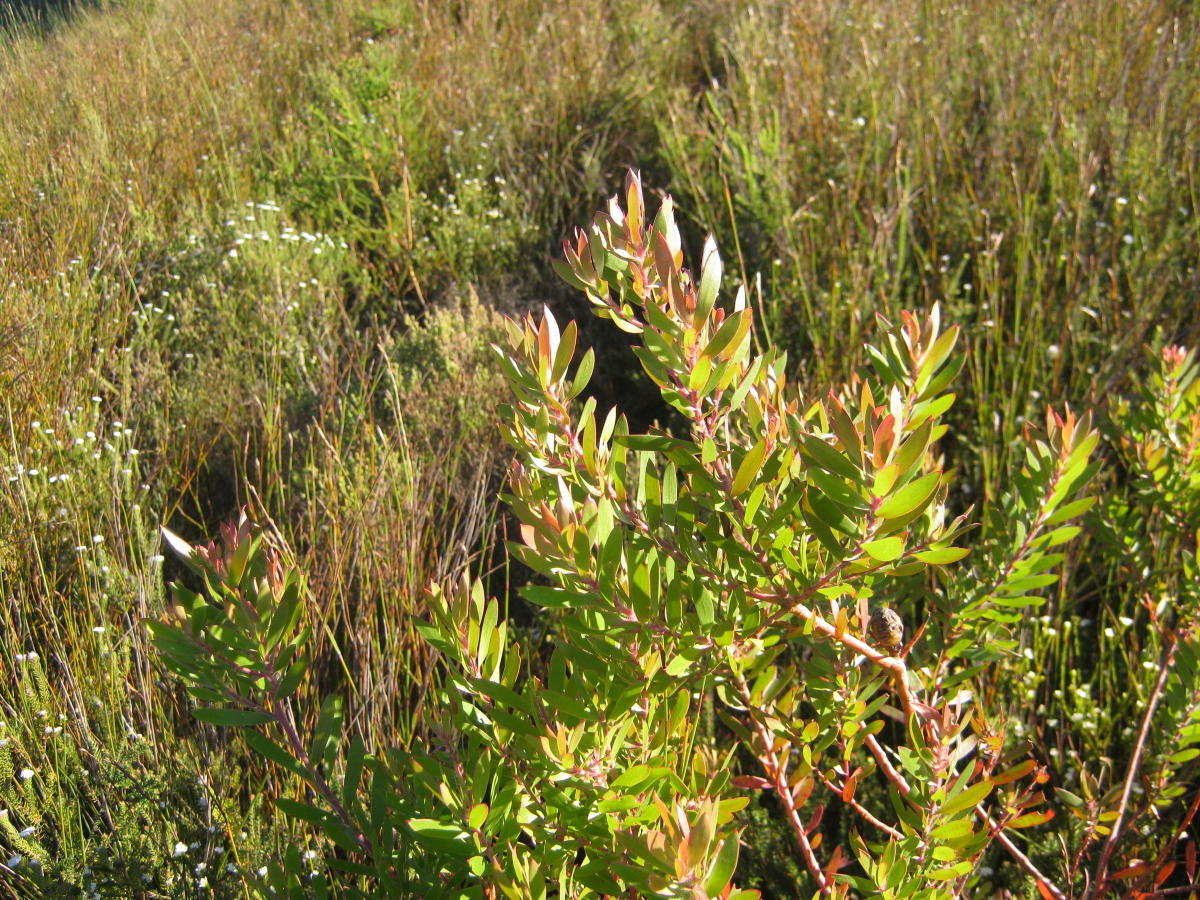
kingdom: Plantae
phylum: Tracheophyta
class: Magnoliopsida
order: Proteales
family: Proteaceae
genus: Leucadendron
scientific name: Leucadendron conicum
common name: Garden route conebush
